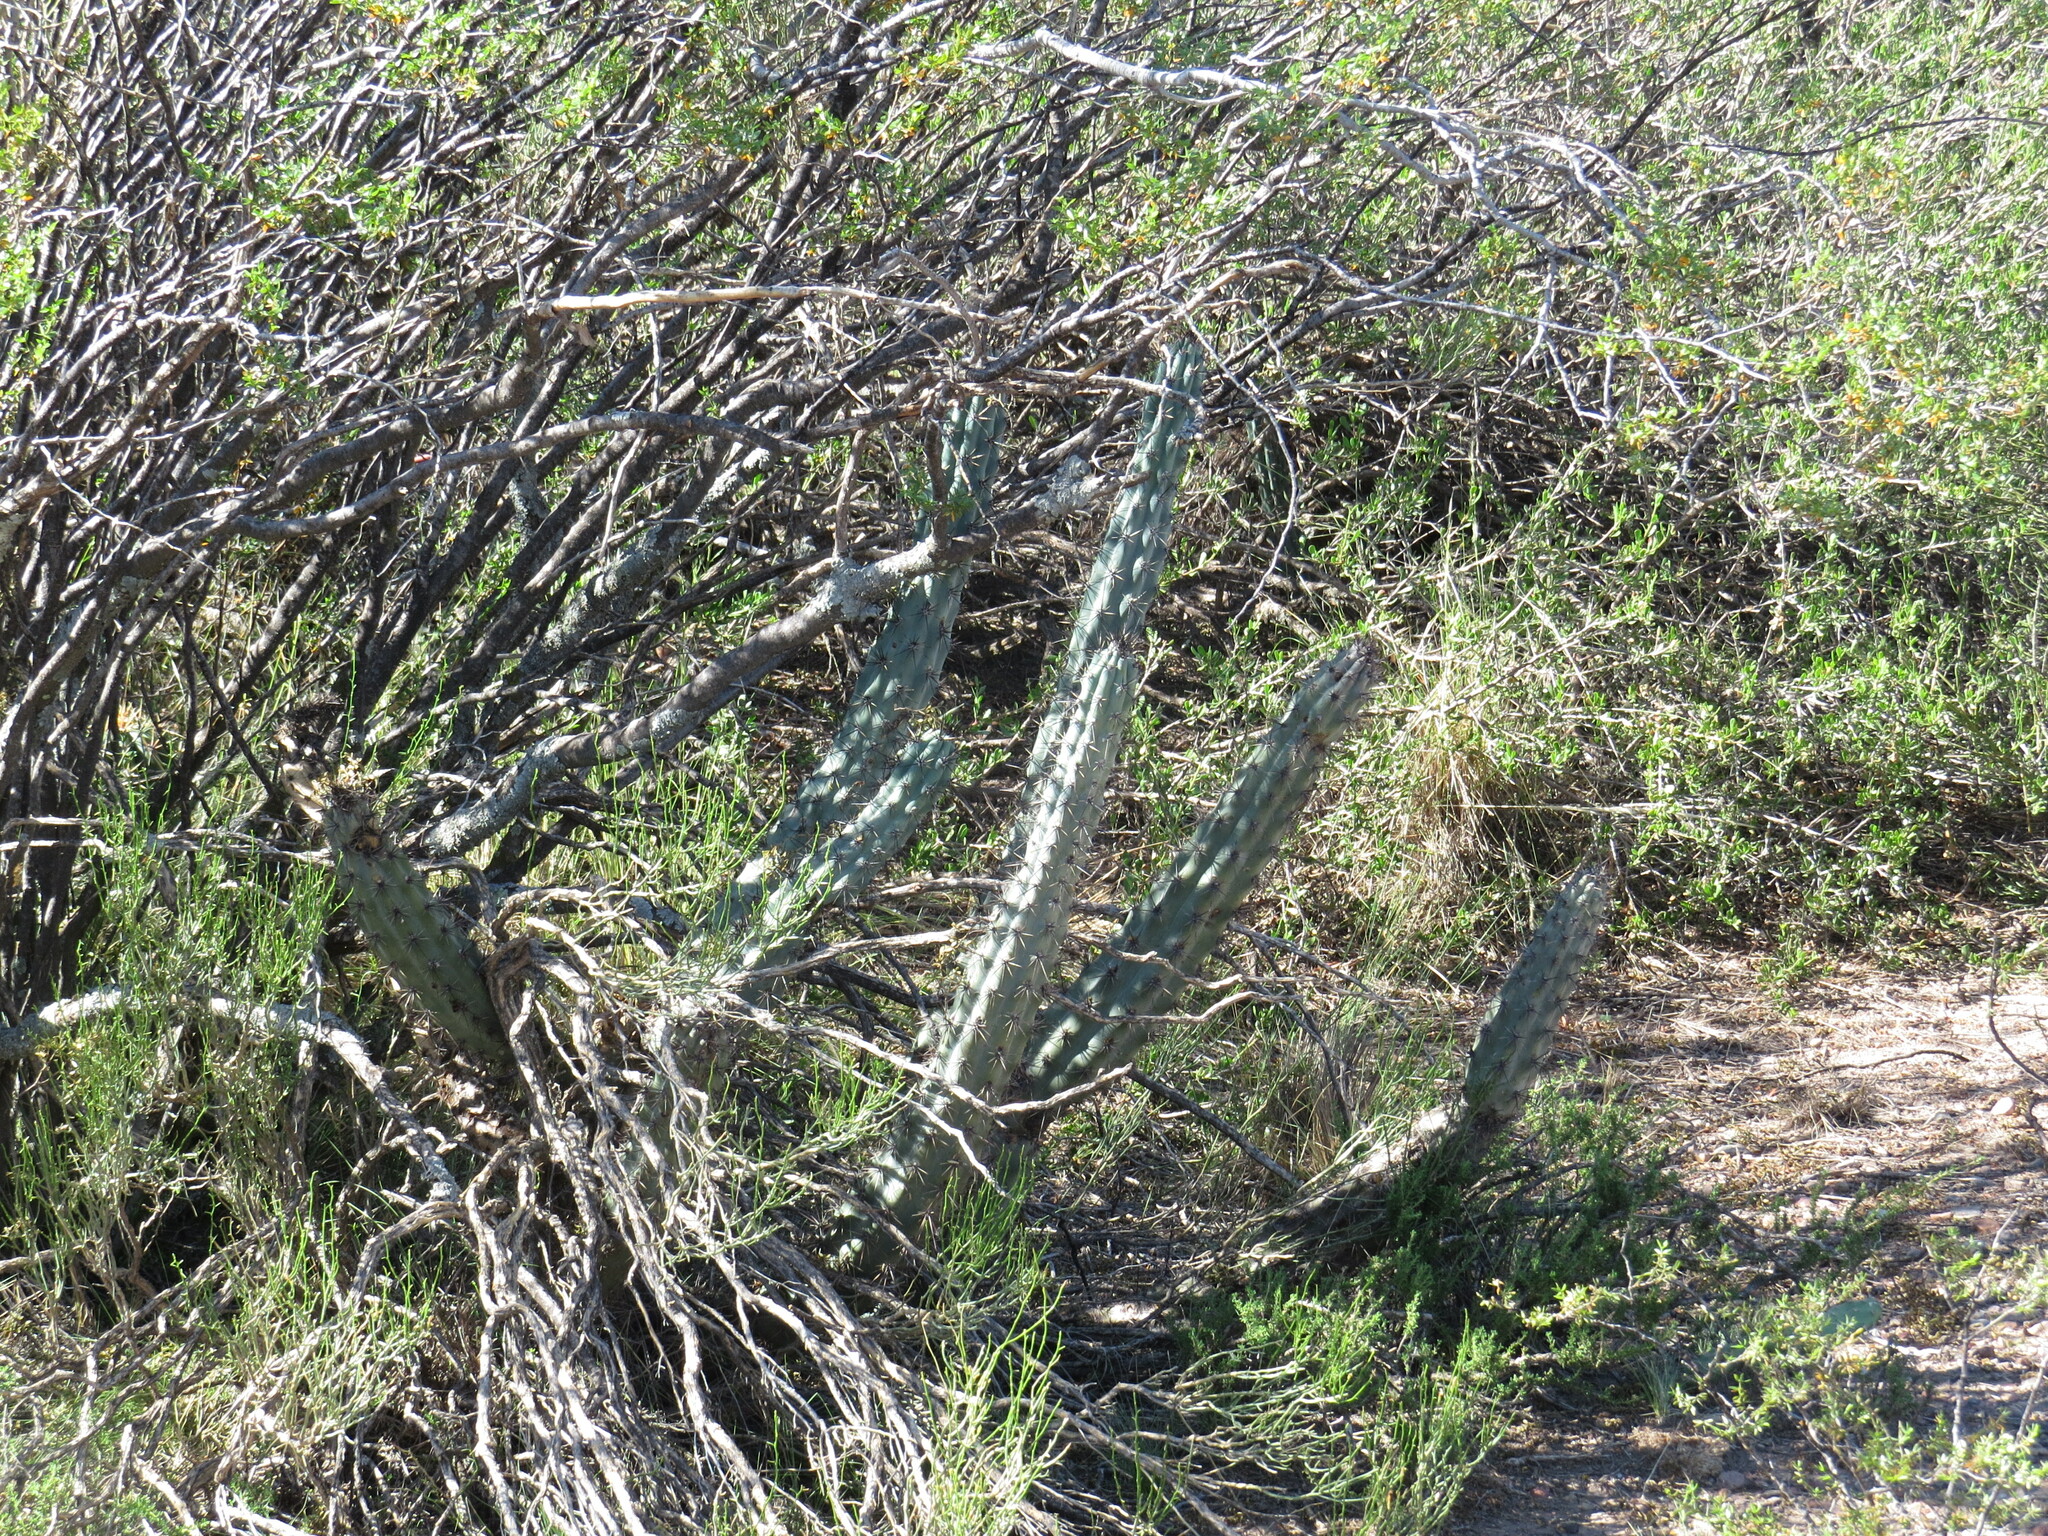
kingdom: Plantae
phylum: Tracheophyta
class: Magnoliopsida
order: Caryophyllales
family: Cactaceae
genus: Cereus
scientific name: Cereus aethiops
